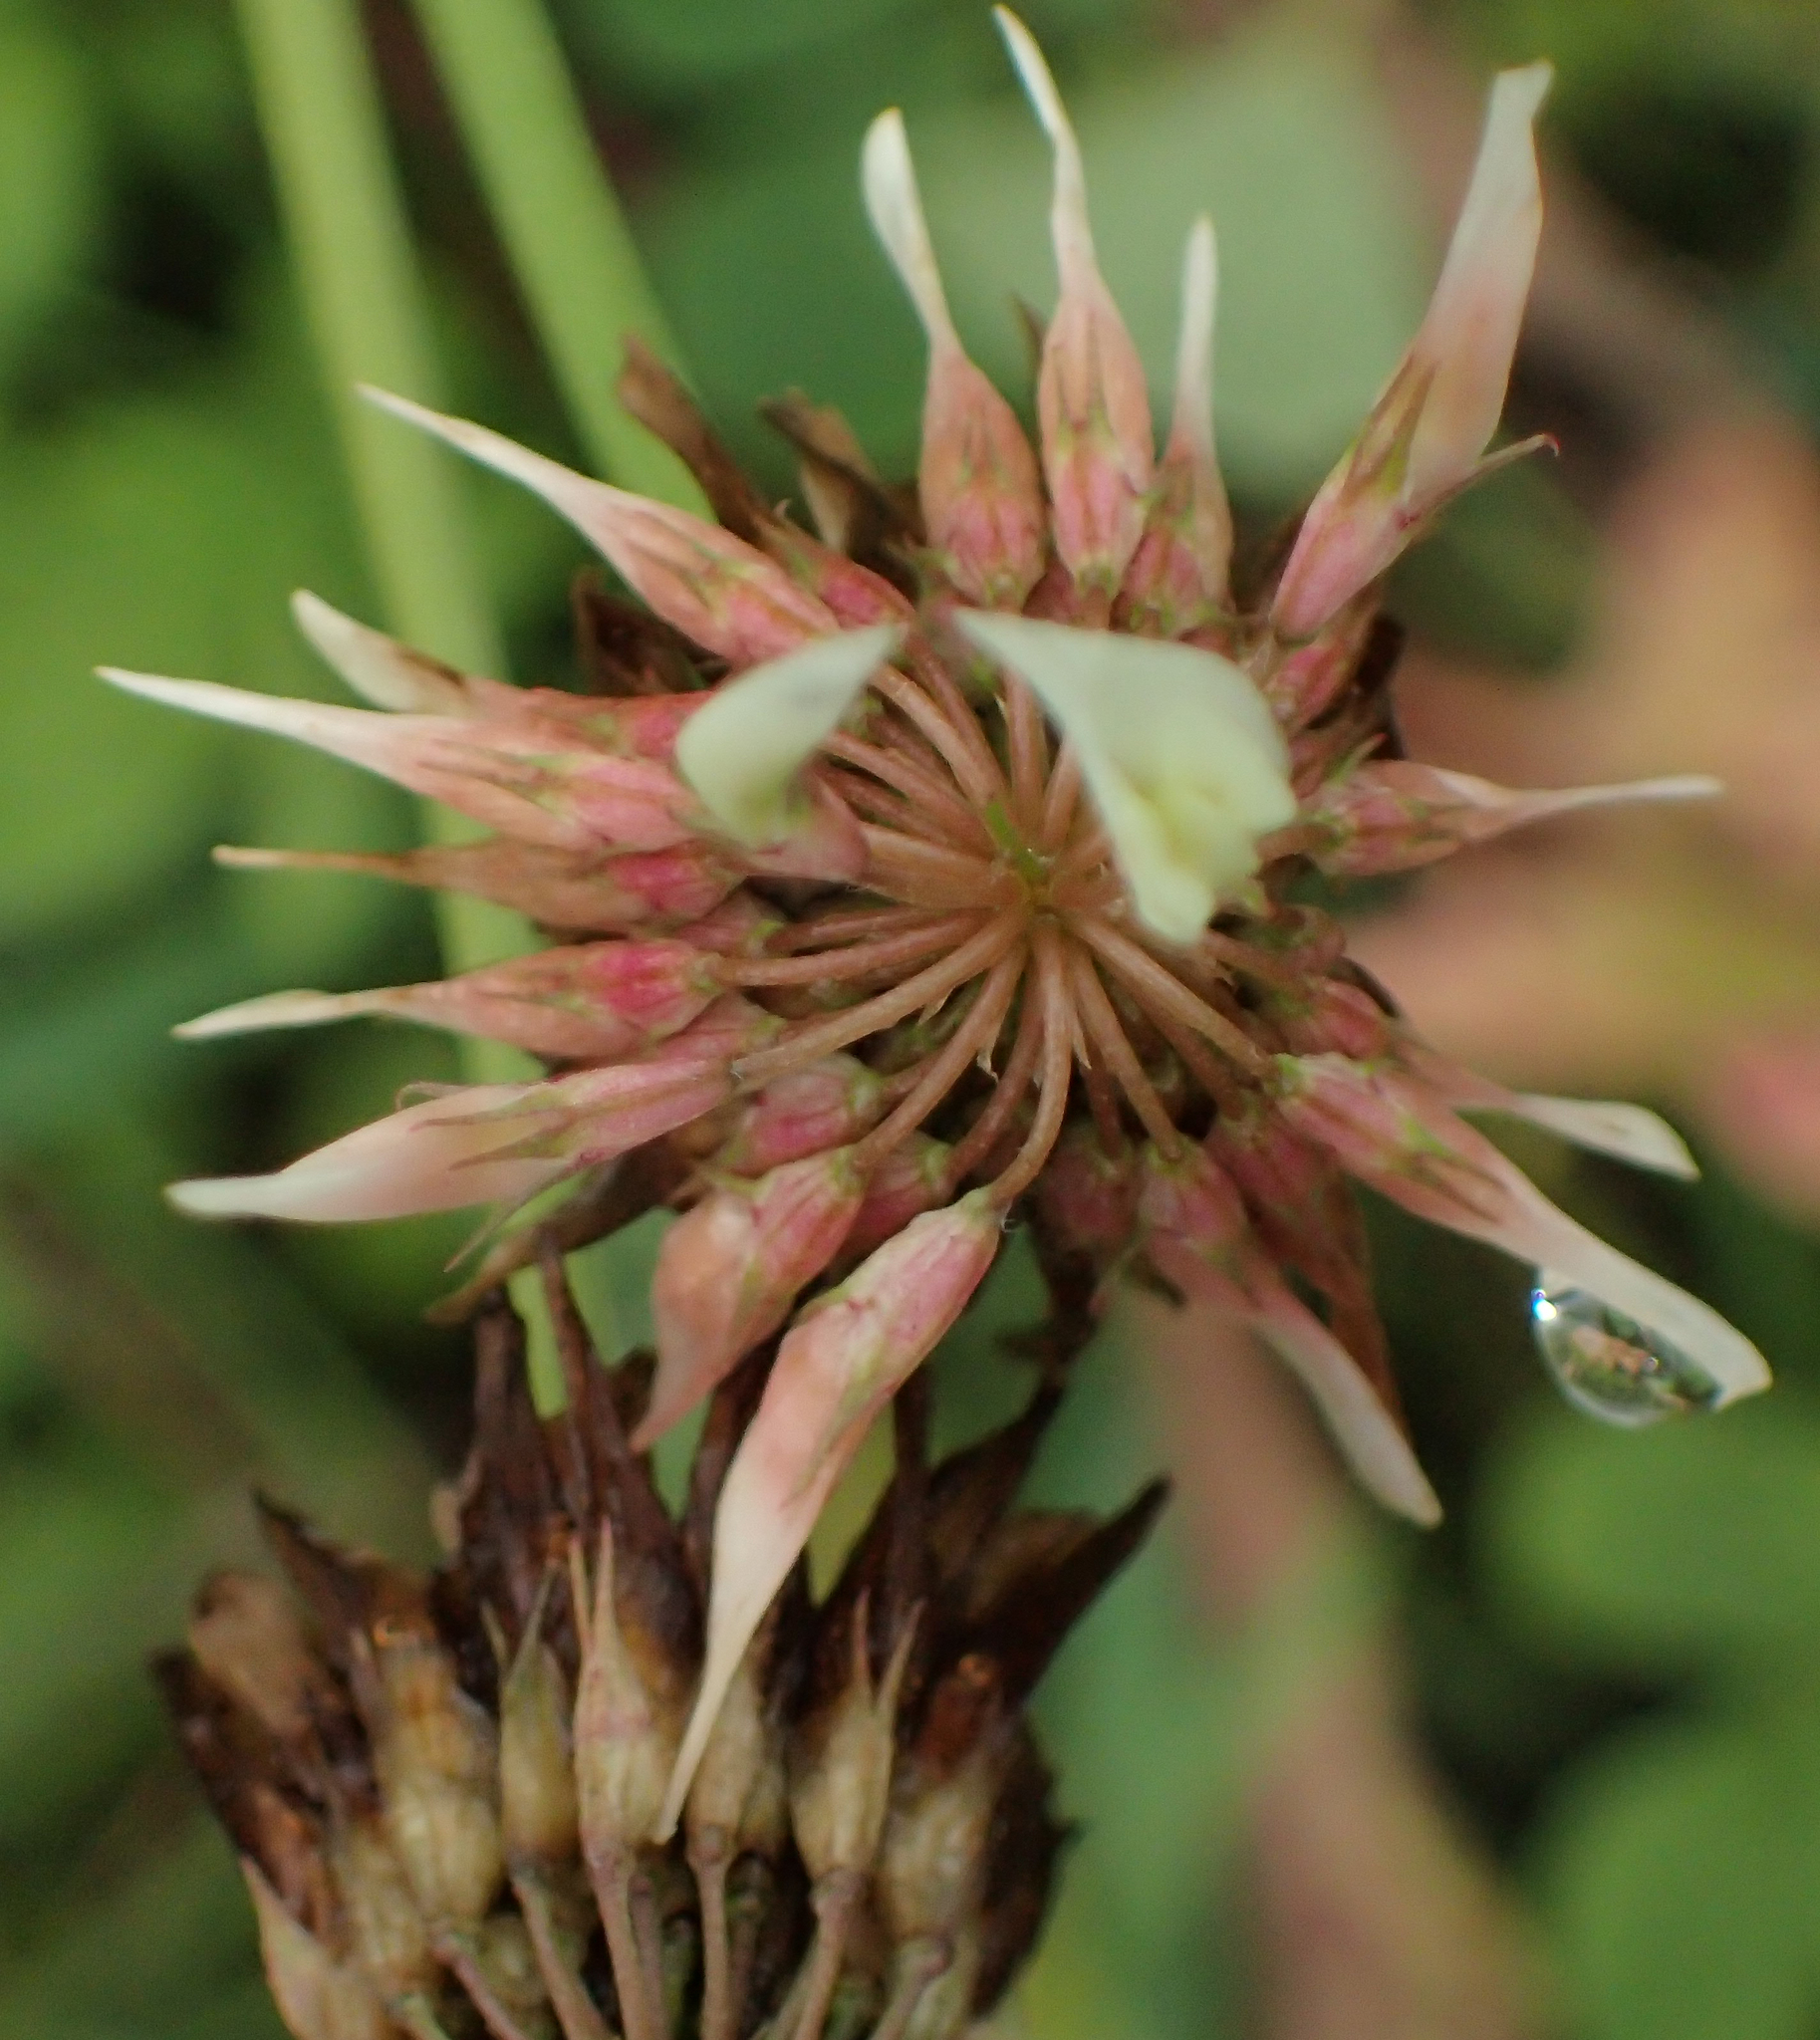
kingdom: Plantae
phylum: Tracheophyta
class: Magnoliopsida
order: Fabales
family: Fabaceae
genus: Trifolium
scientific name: Trifolium repens
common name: White clover
